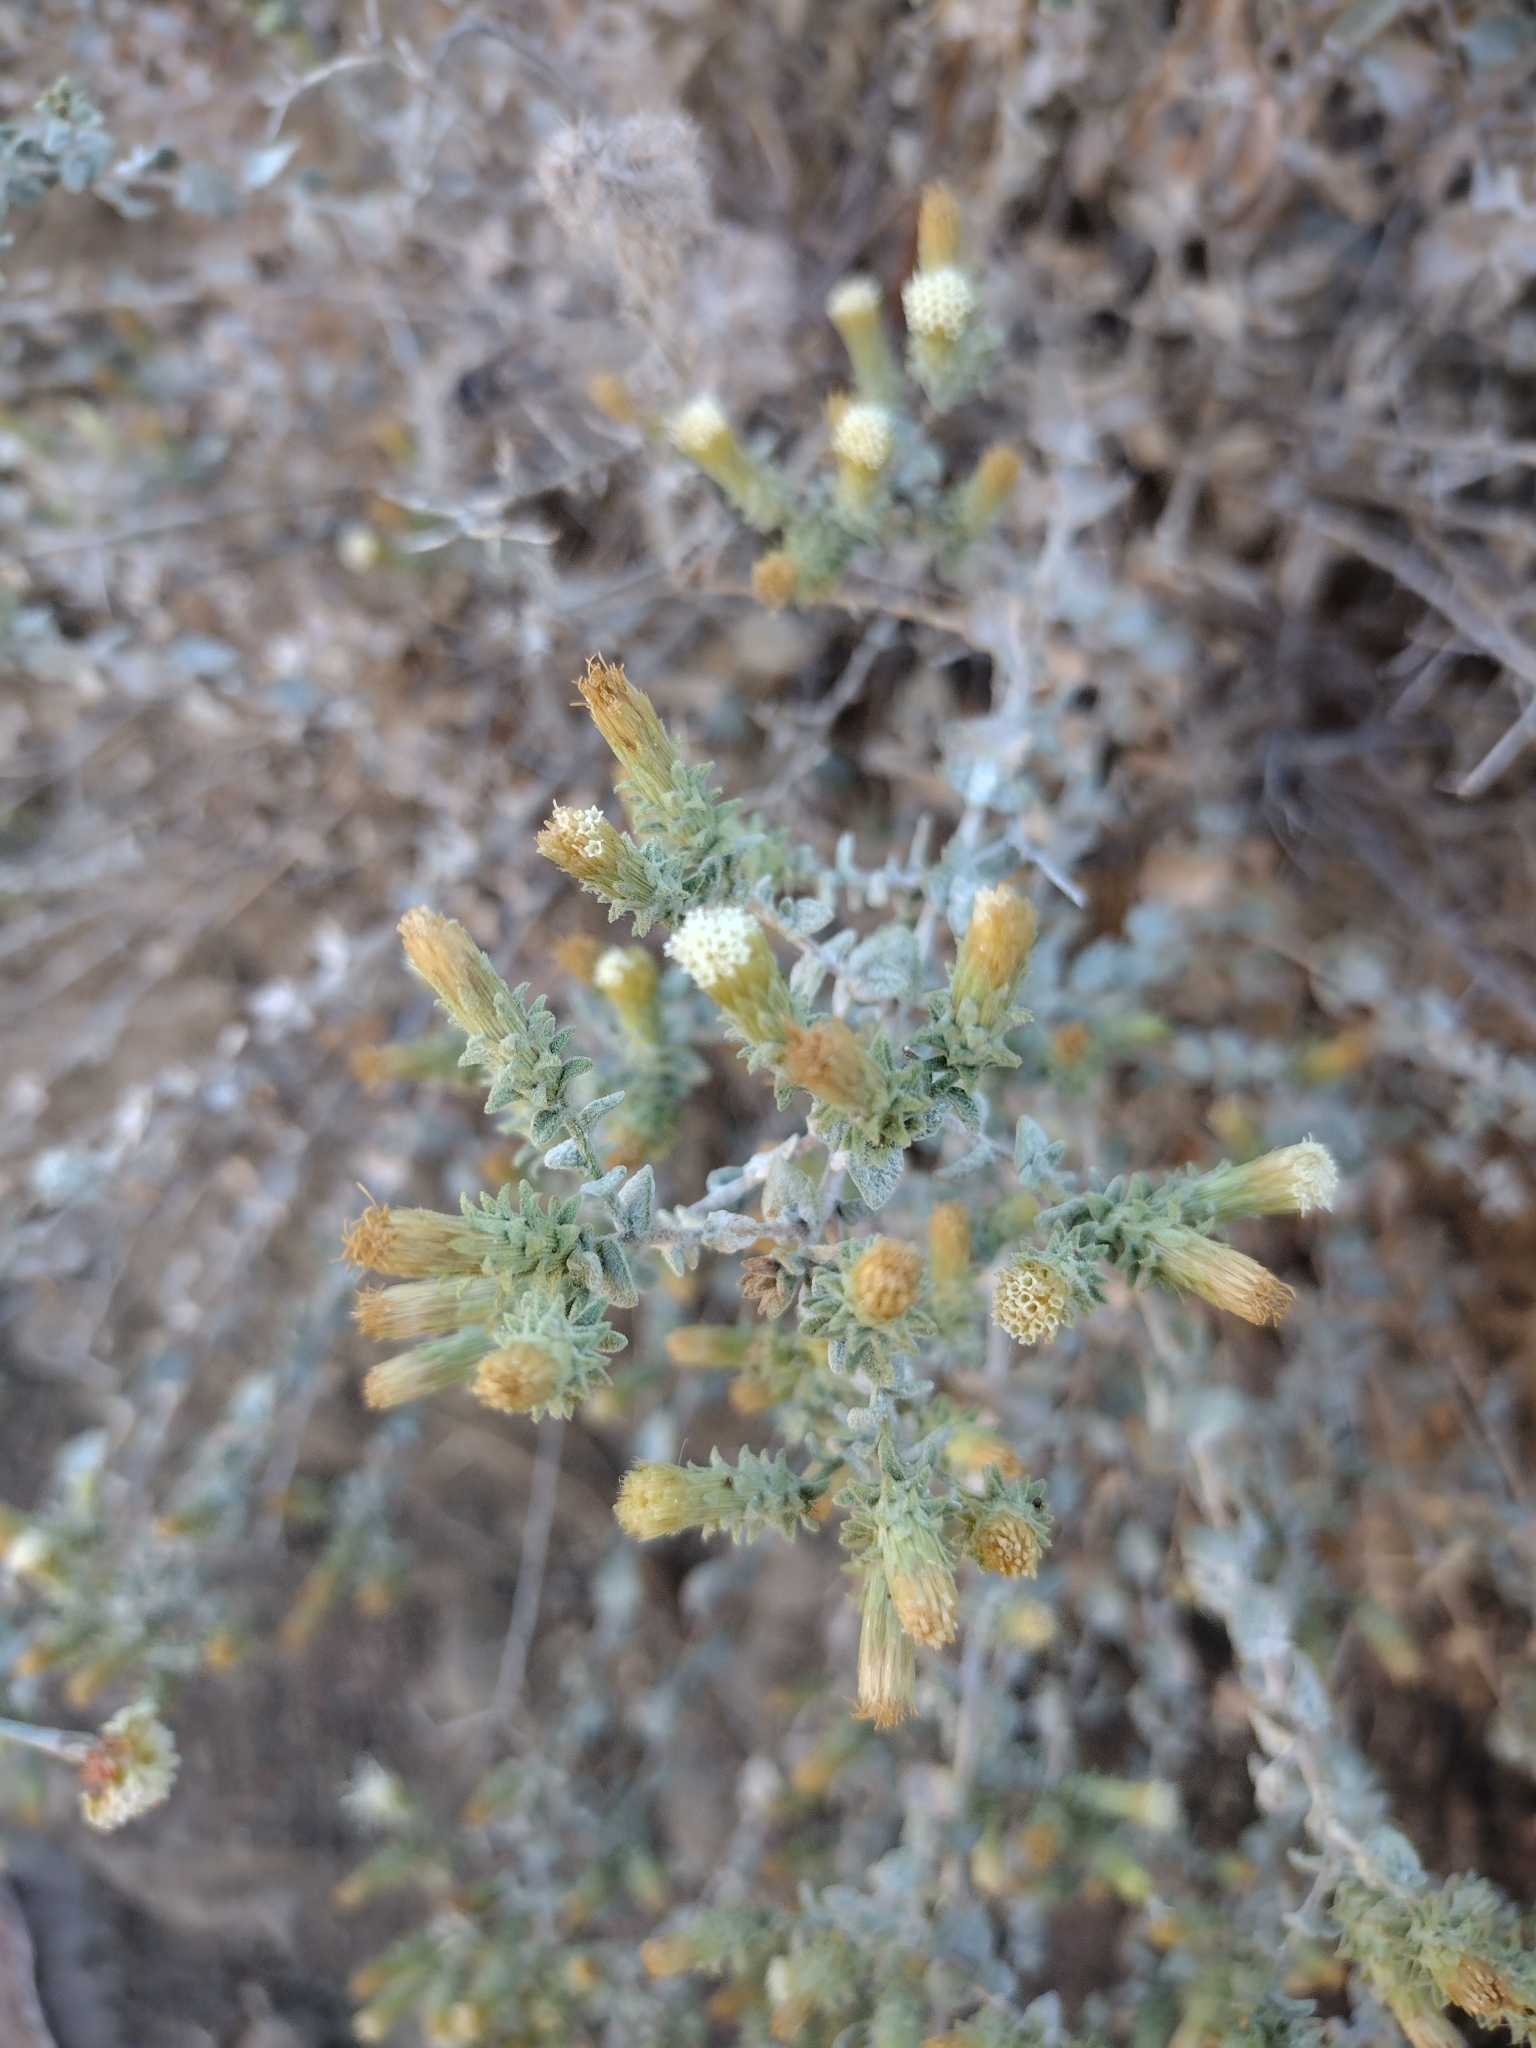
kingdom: Plantae
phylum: Tracheophyta
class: Magnoliopsida
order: Asterales
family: Asteraceae
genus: Brickellia
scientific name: Brickellia nevinii
